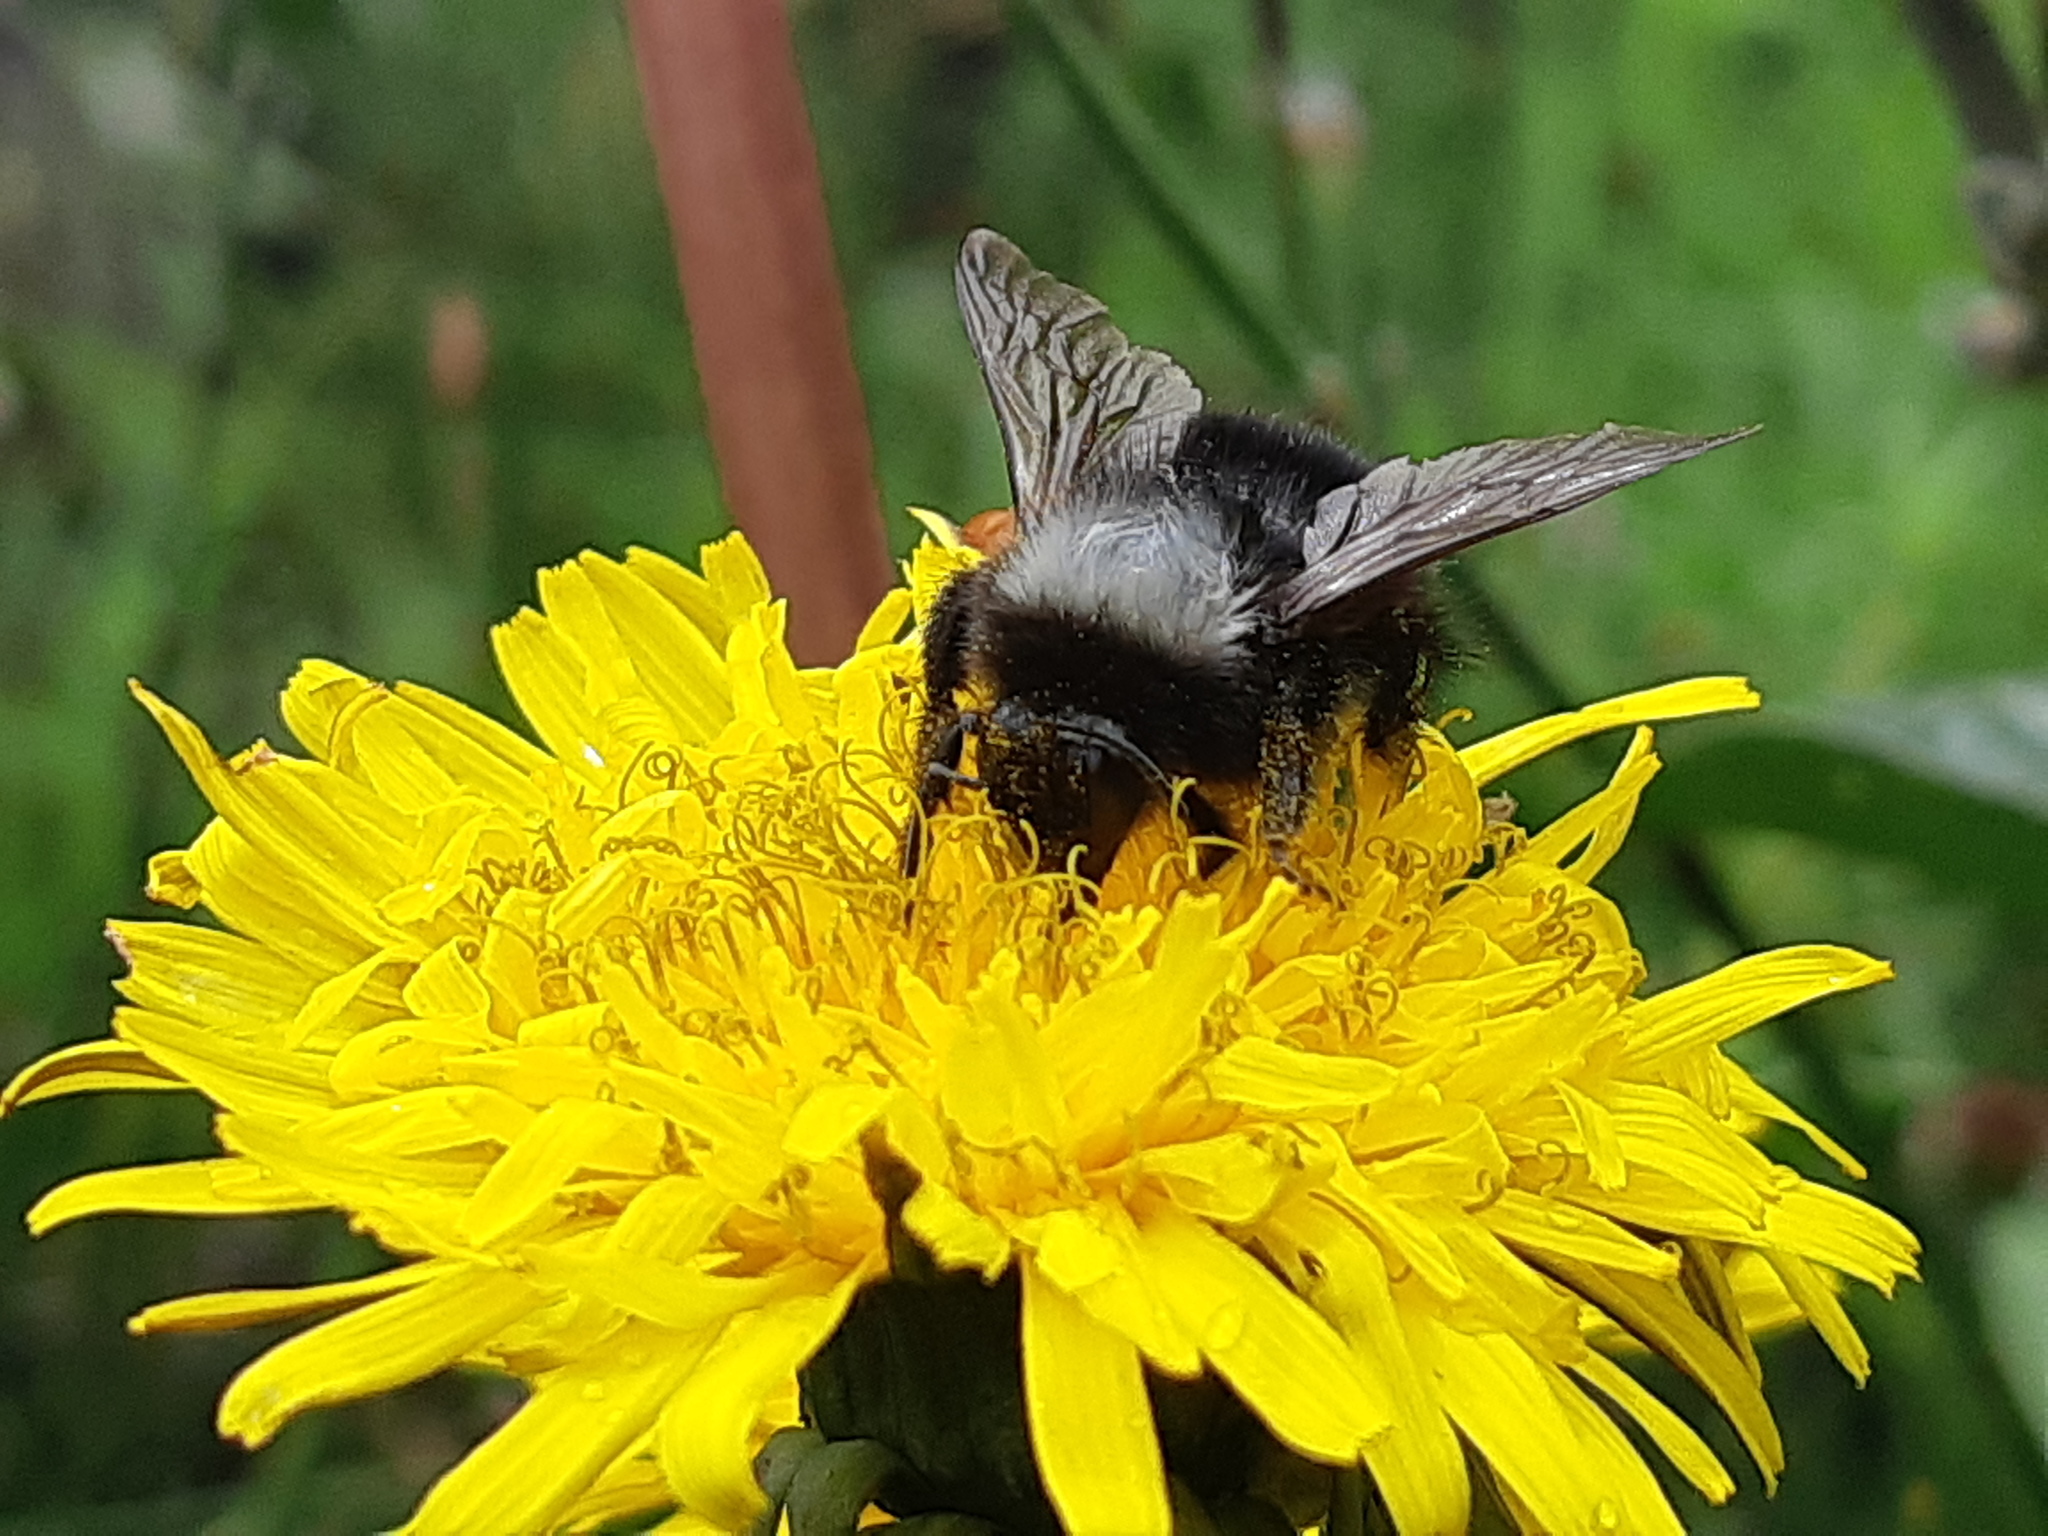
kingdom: Animalia
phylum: Arthropoda
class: Insecta
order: Hymenoptera
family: Apidae
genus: Bombus
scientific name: Bombus funebris
